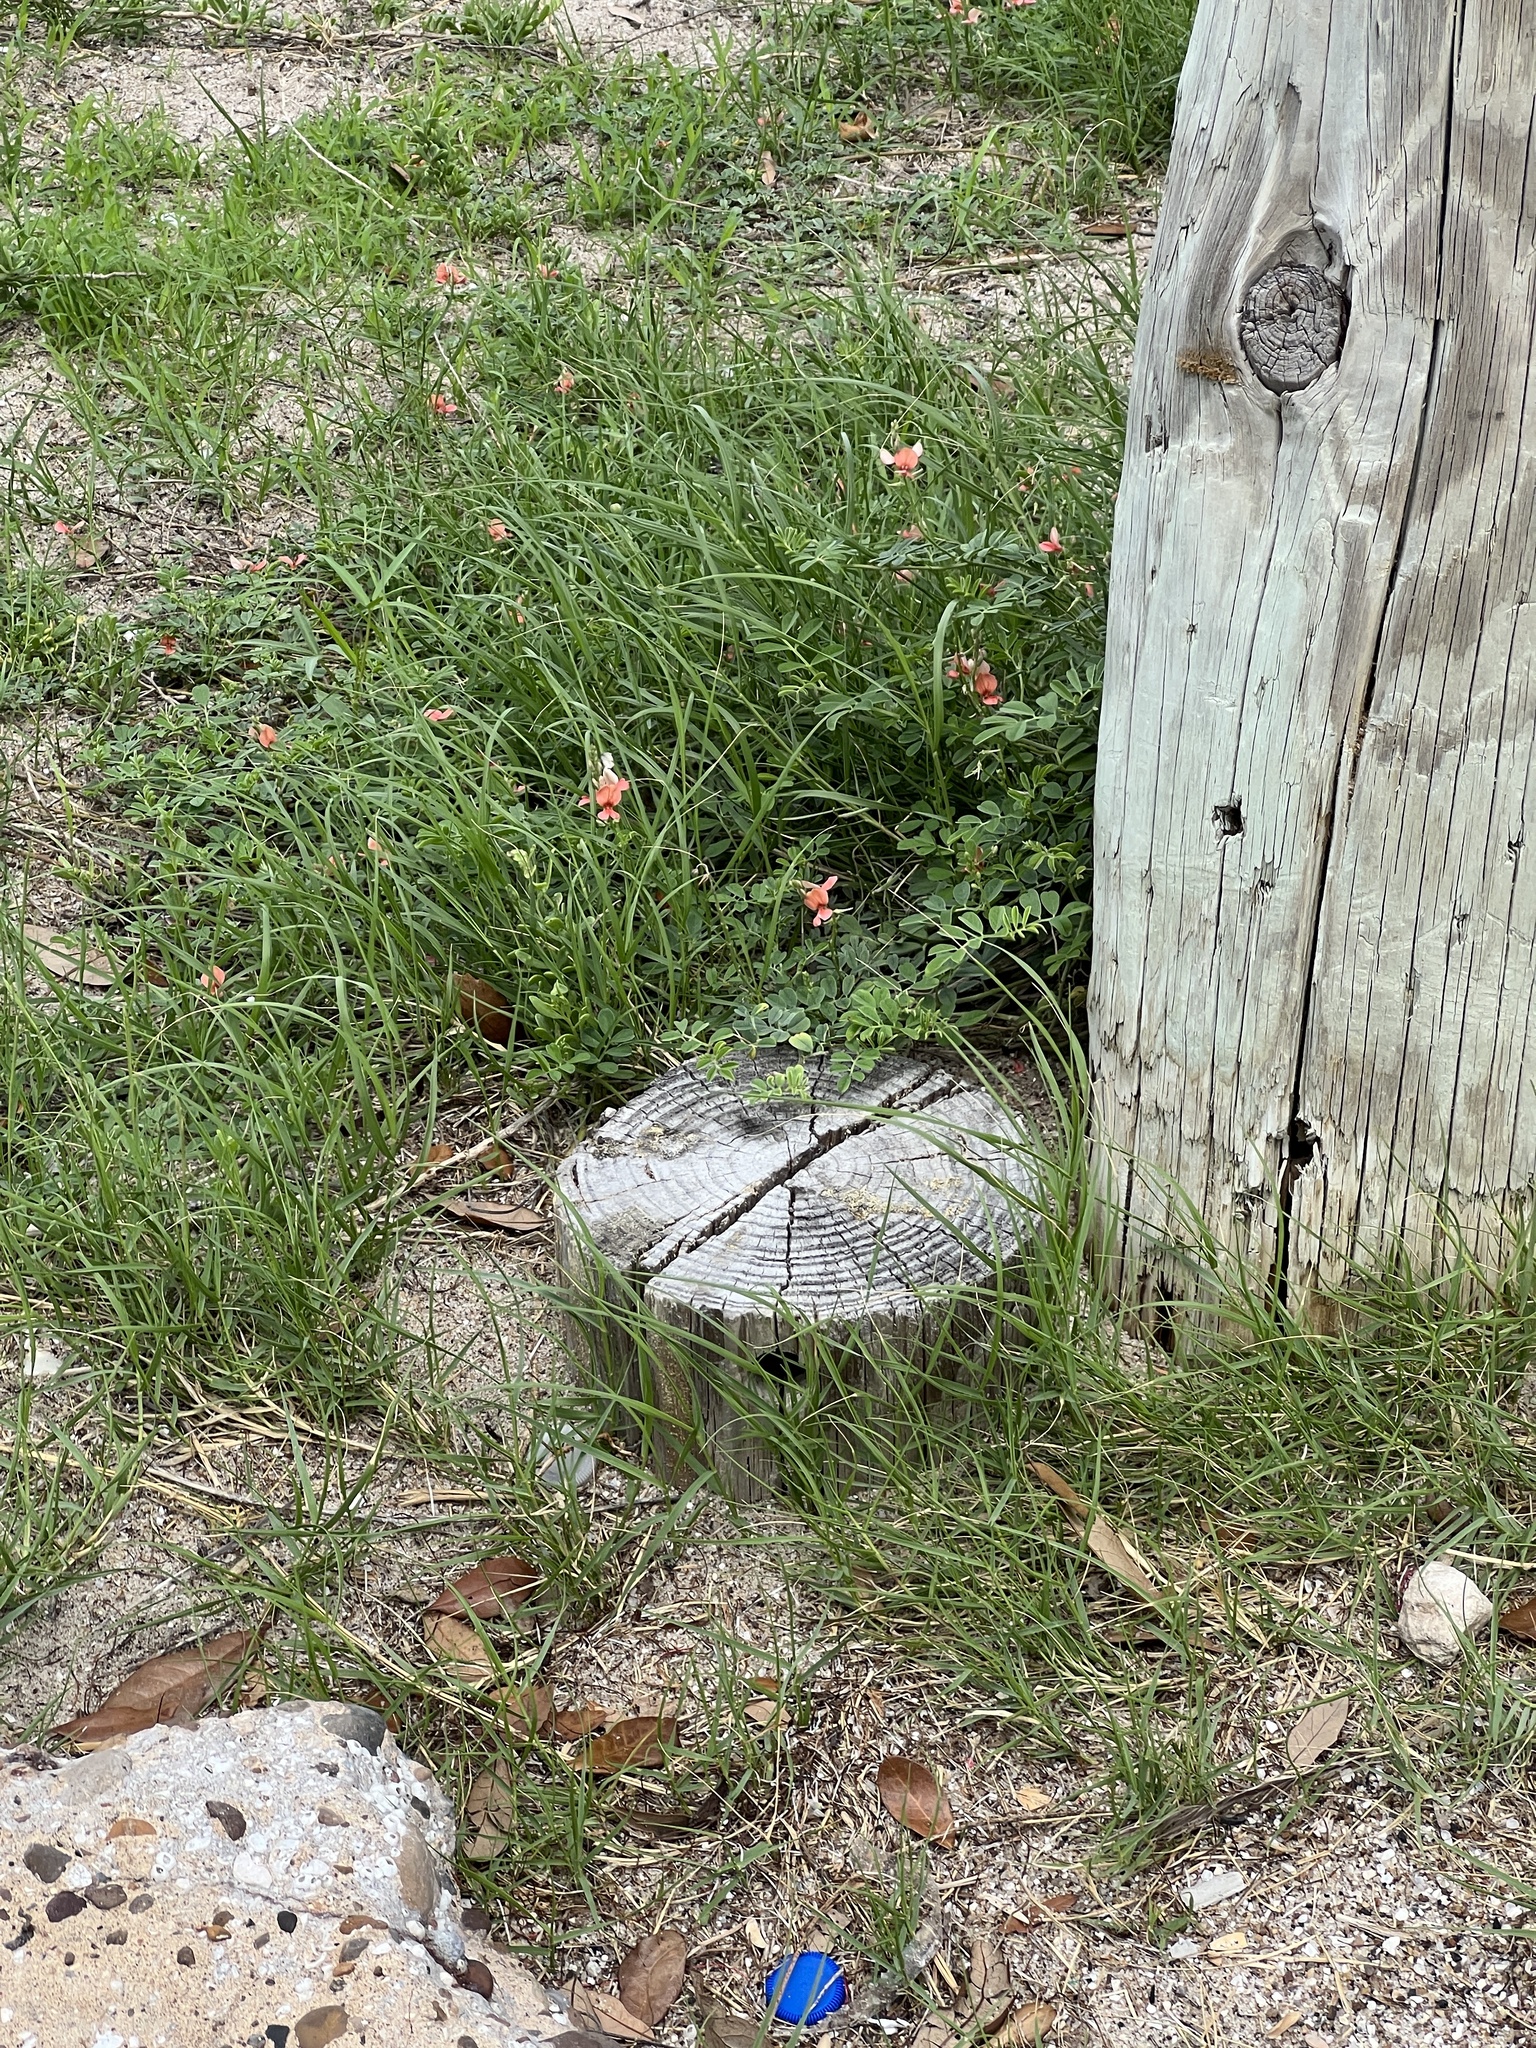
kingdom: Plantae
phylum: Tracheophyta
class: Magnoliopsida
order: Fabales
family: Fabaceae
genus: Indigofera
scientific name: Indigofera miniata
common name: Coast indigo
